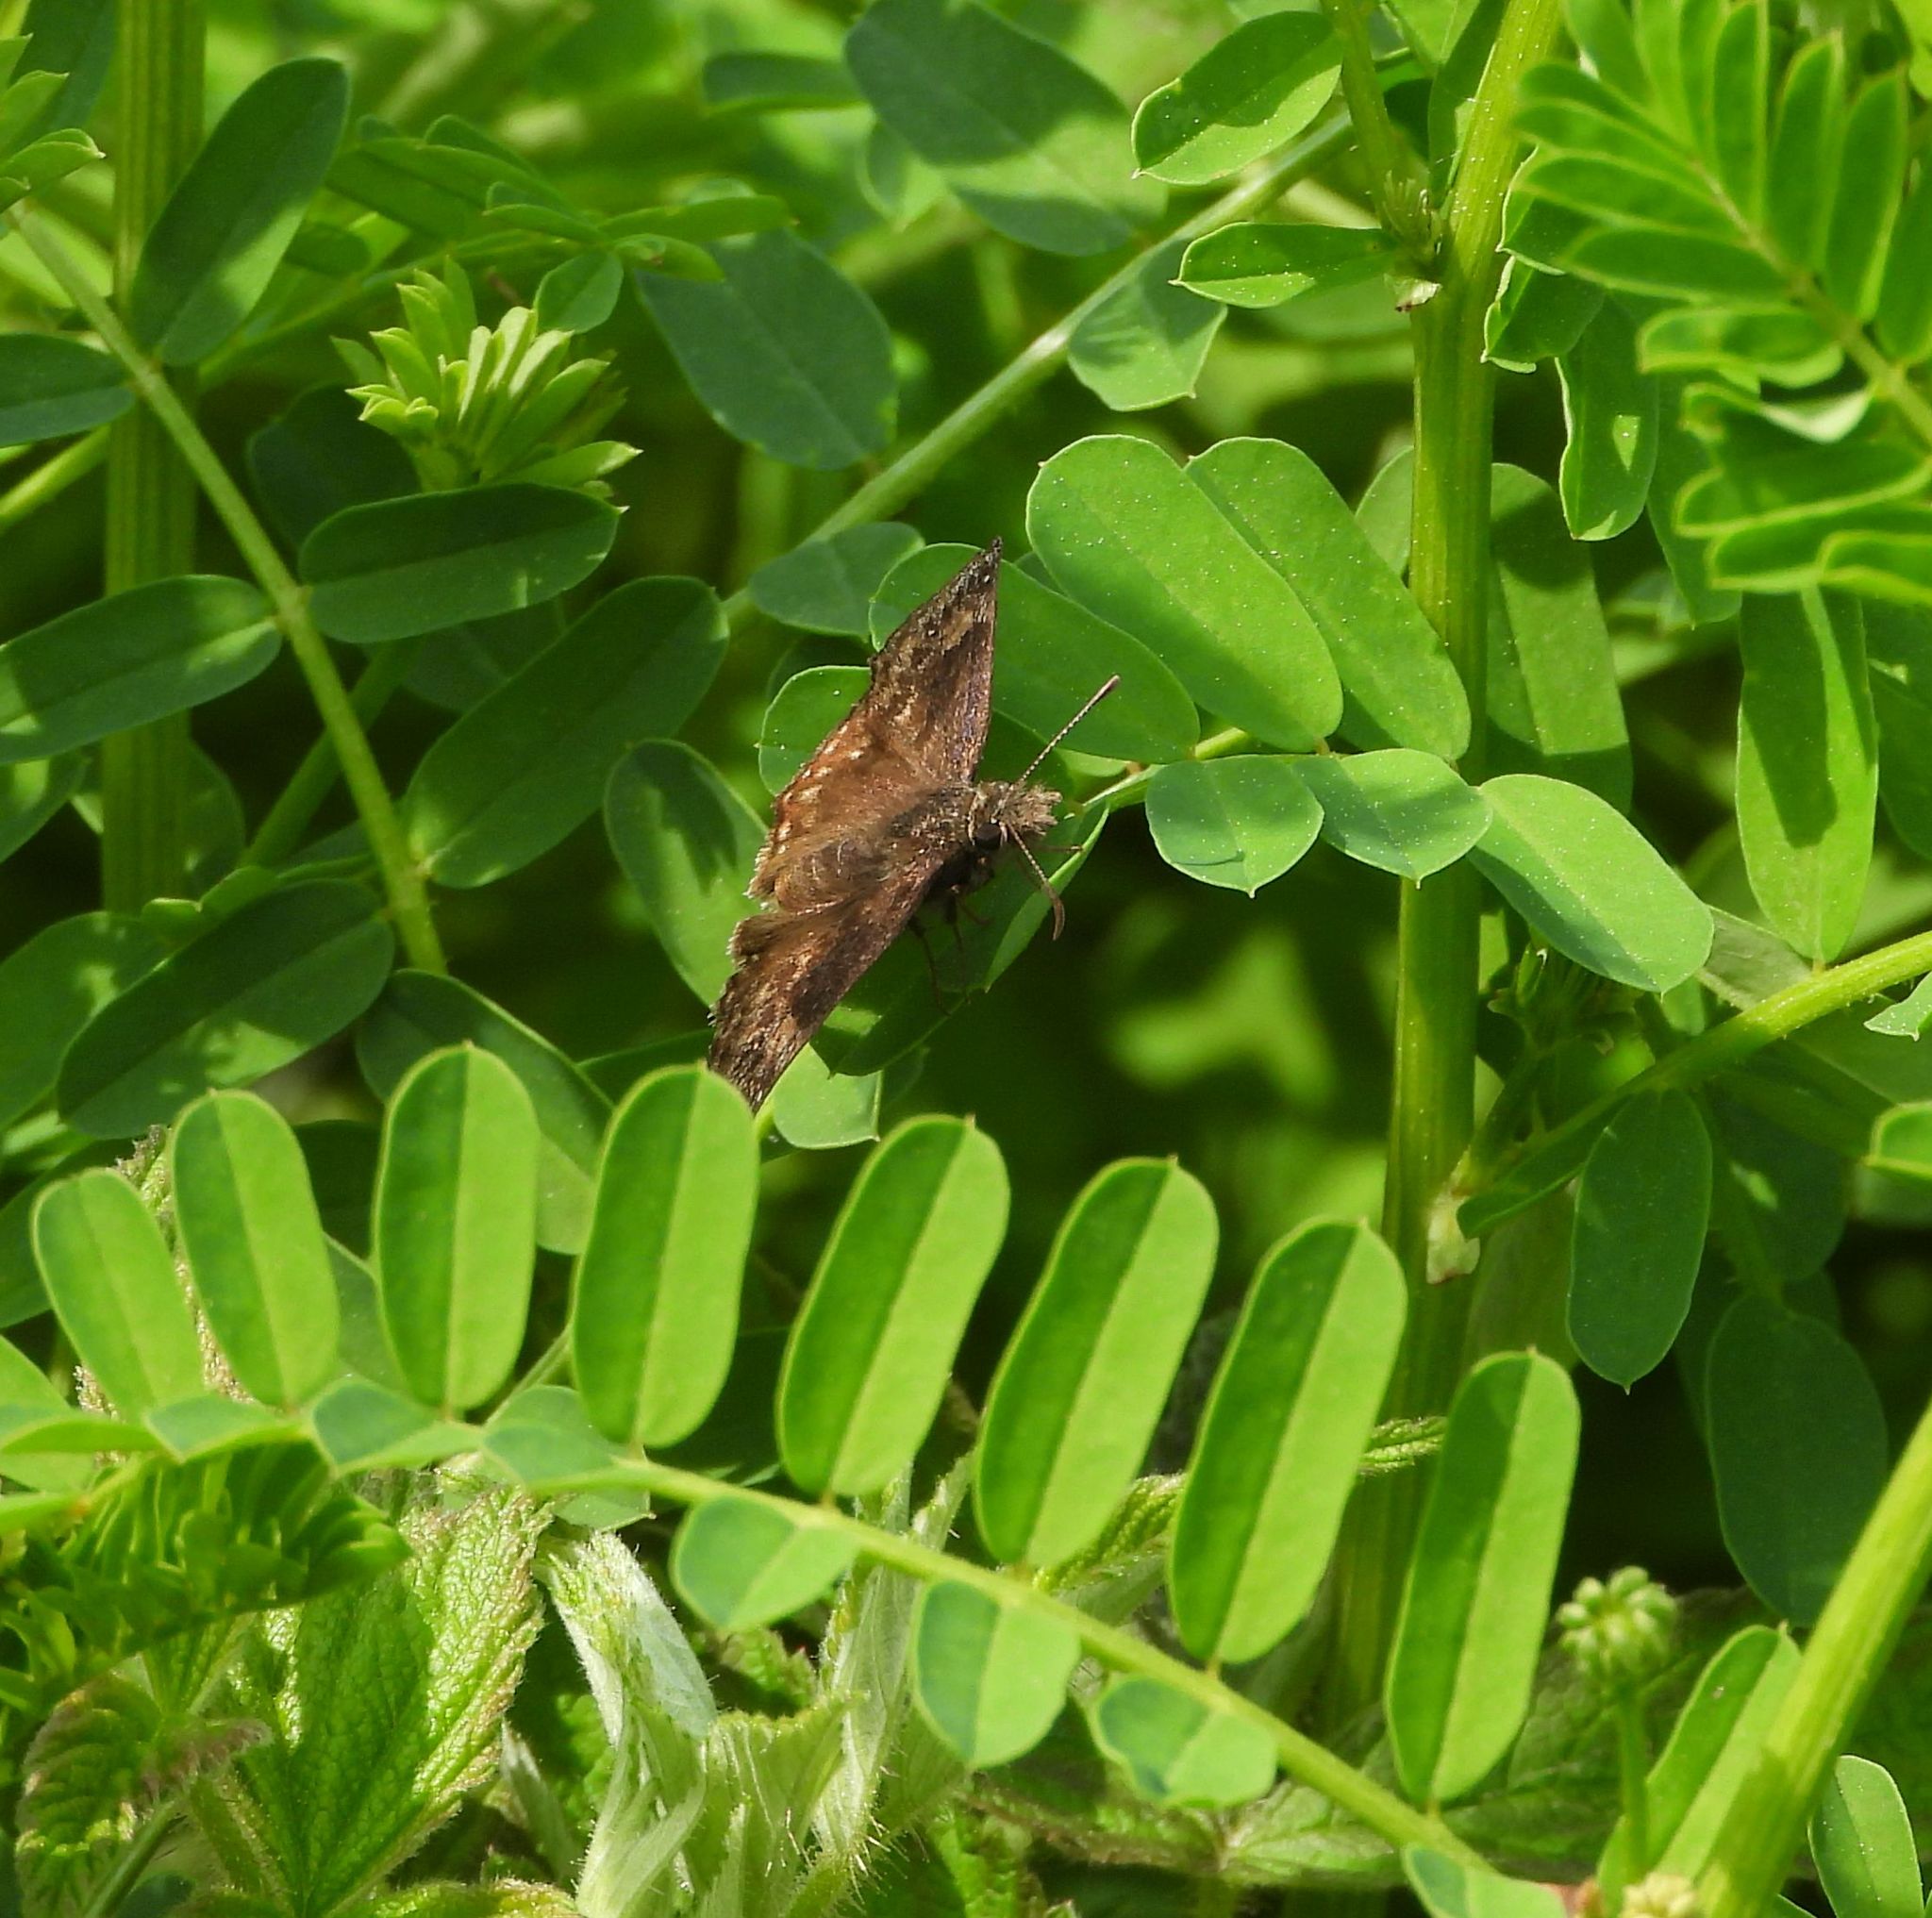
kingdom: Animalia
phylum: Arthropoda
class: Insecta
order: Lepidoptera
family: Hesperiidae
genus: Erynnis
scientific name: Erynnis baptisiae
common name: Wild indigo duskywing
